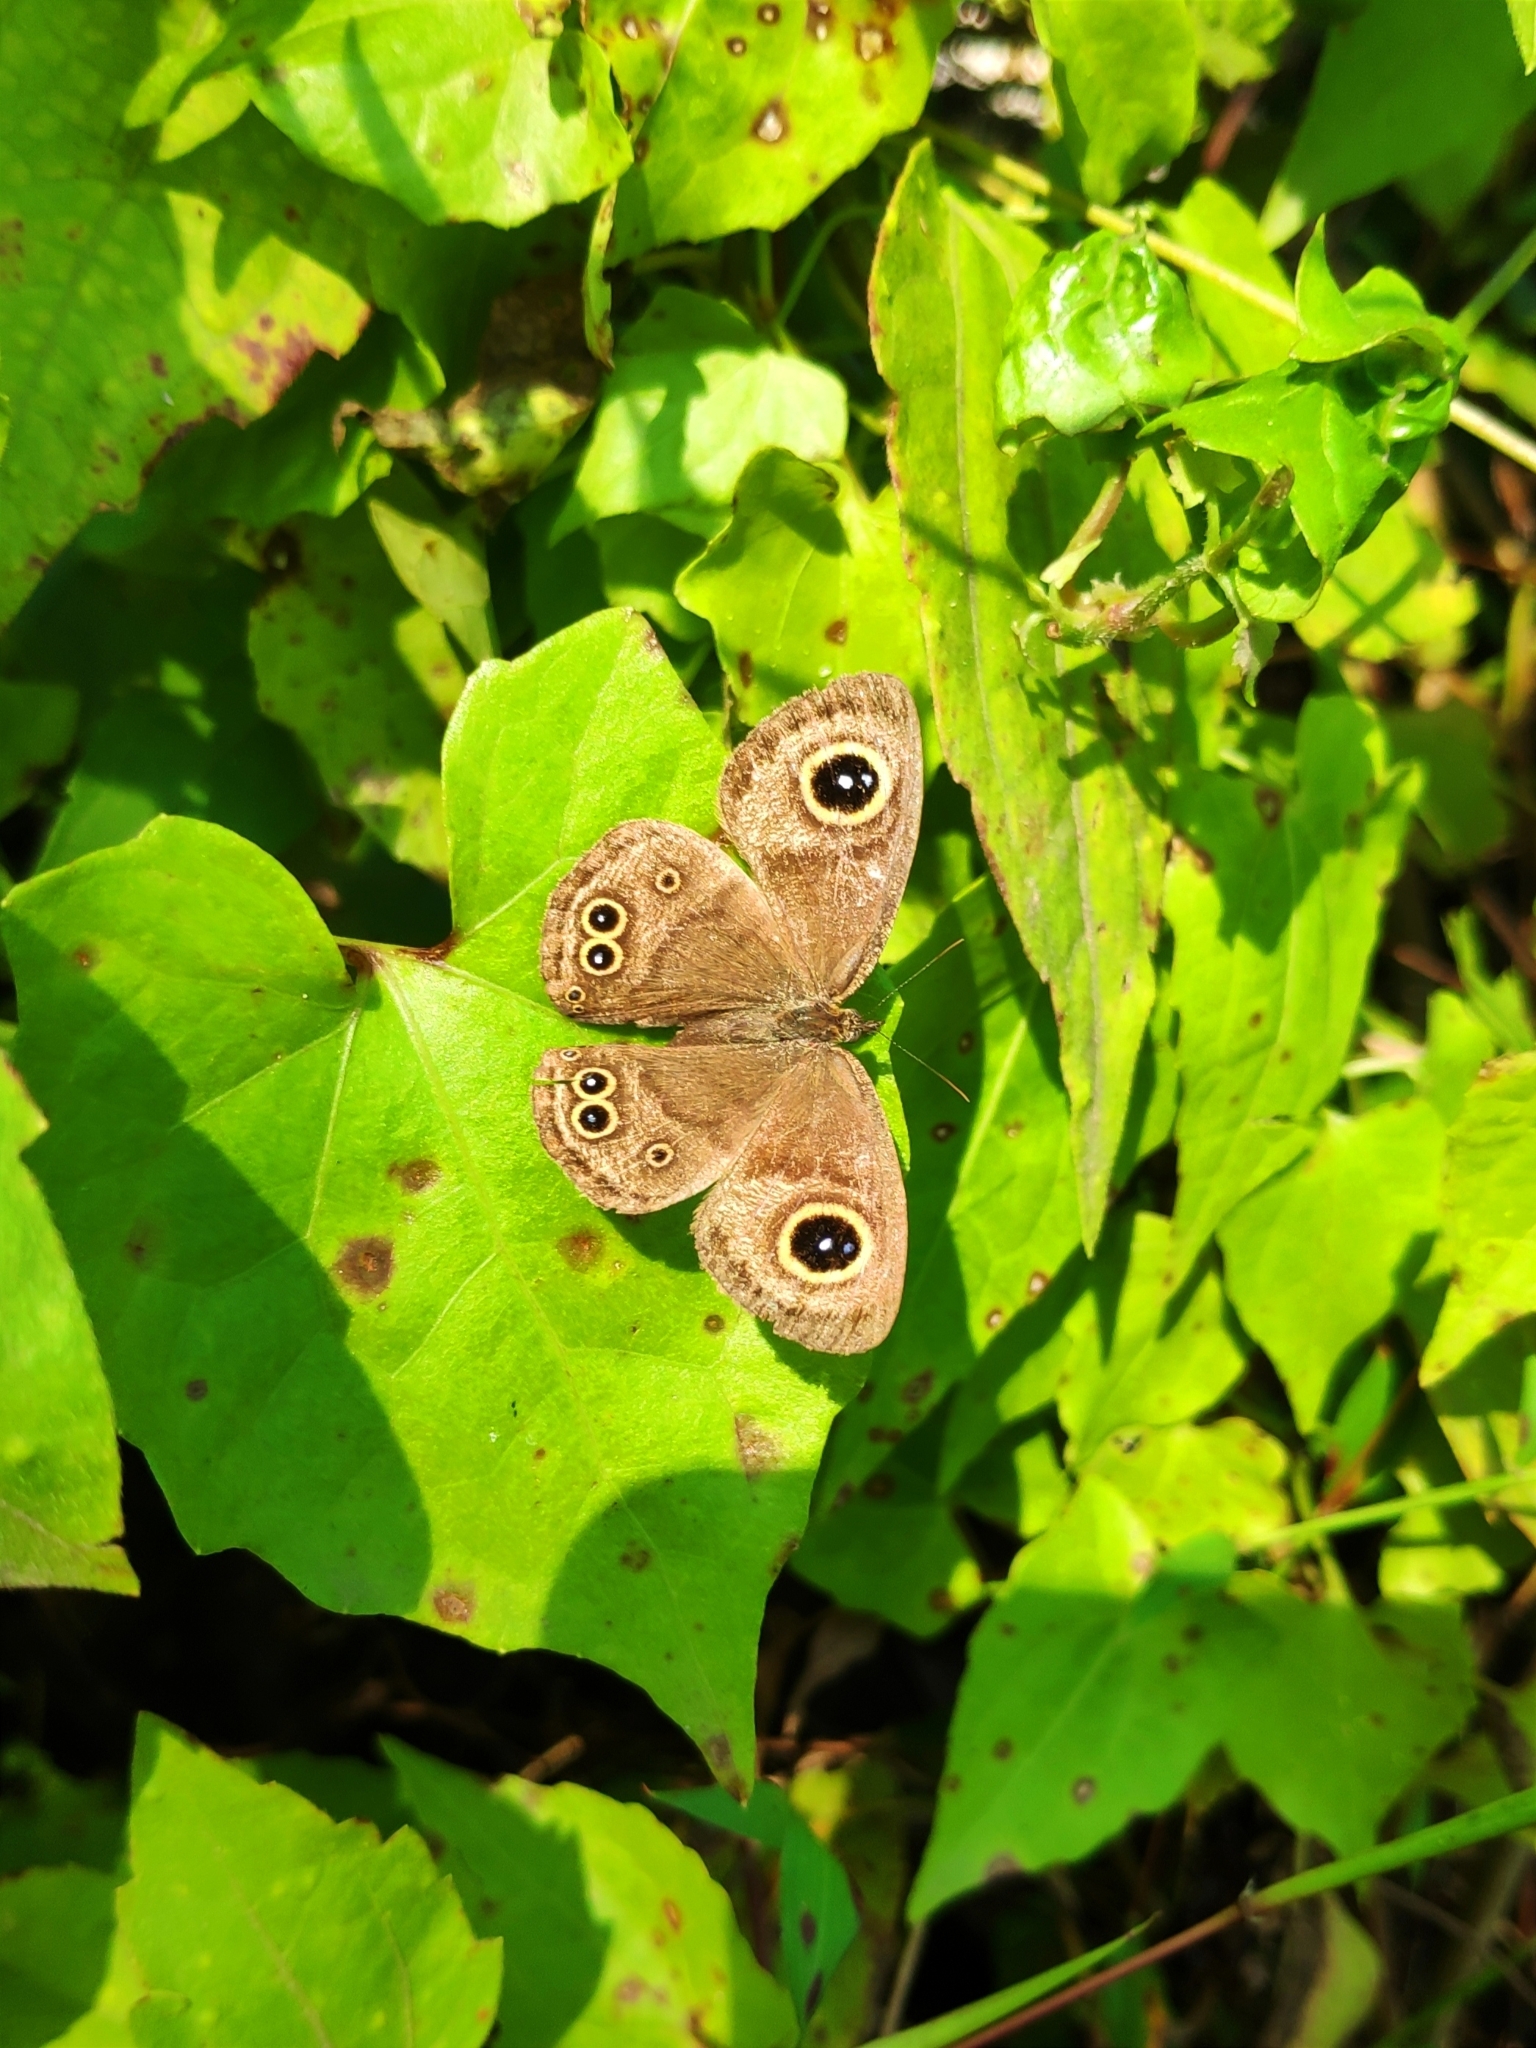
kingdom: Animalia
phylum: Arthropoda
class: Insecta
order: Lepidoptera
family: Nymphalidae
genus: Ypthima
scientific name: Ypthima baldus
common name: Common five-ring
